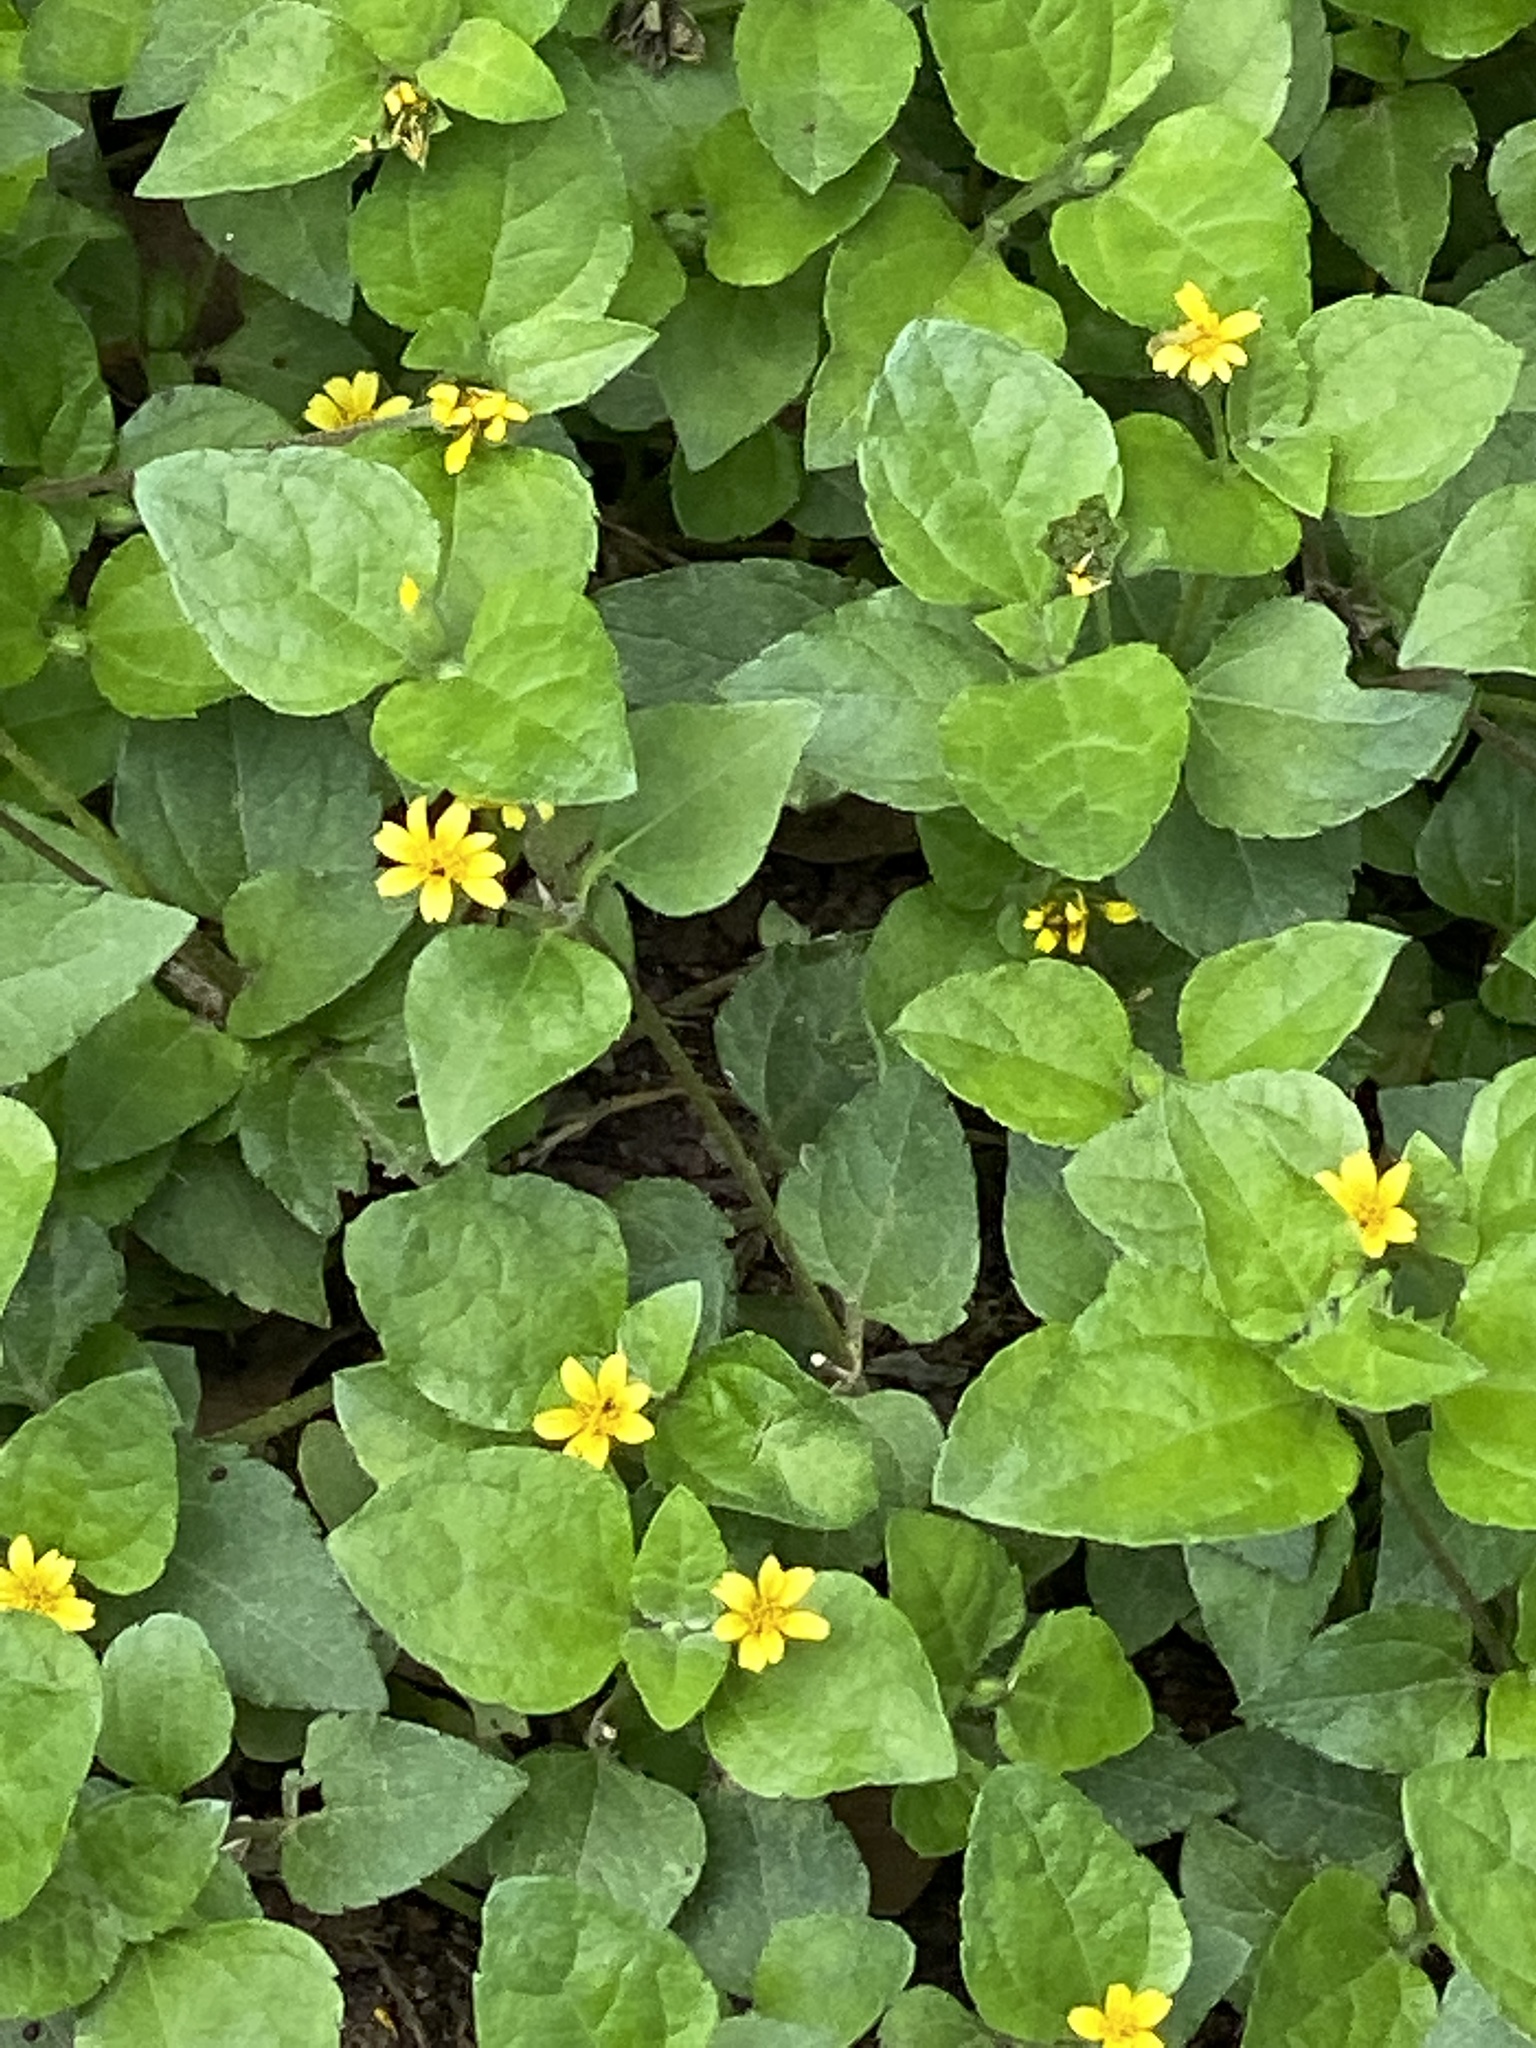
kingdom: Plantae
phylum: Tracheophyta
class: Magnoliopsida
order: Asterales
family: Asteraceae
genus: Calyptocarpus
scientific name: Calyptocarpus vialis
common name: Straggler daisy
